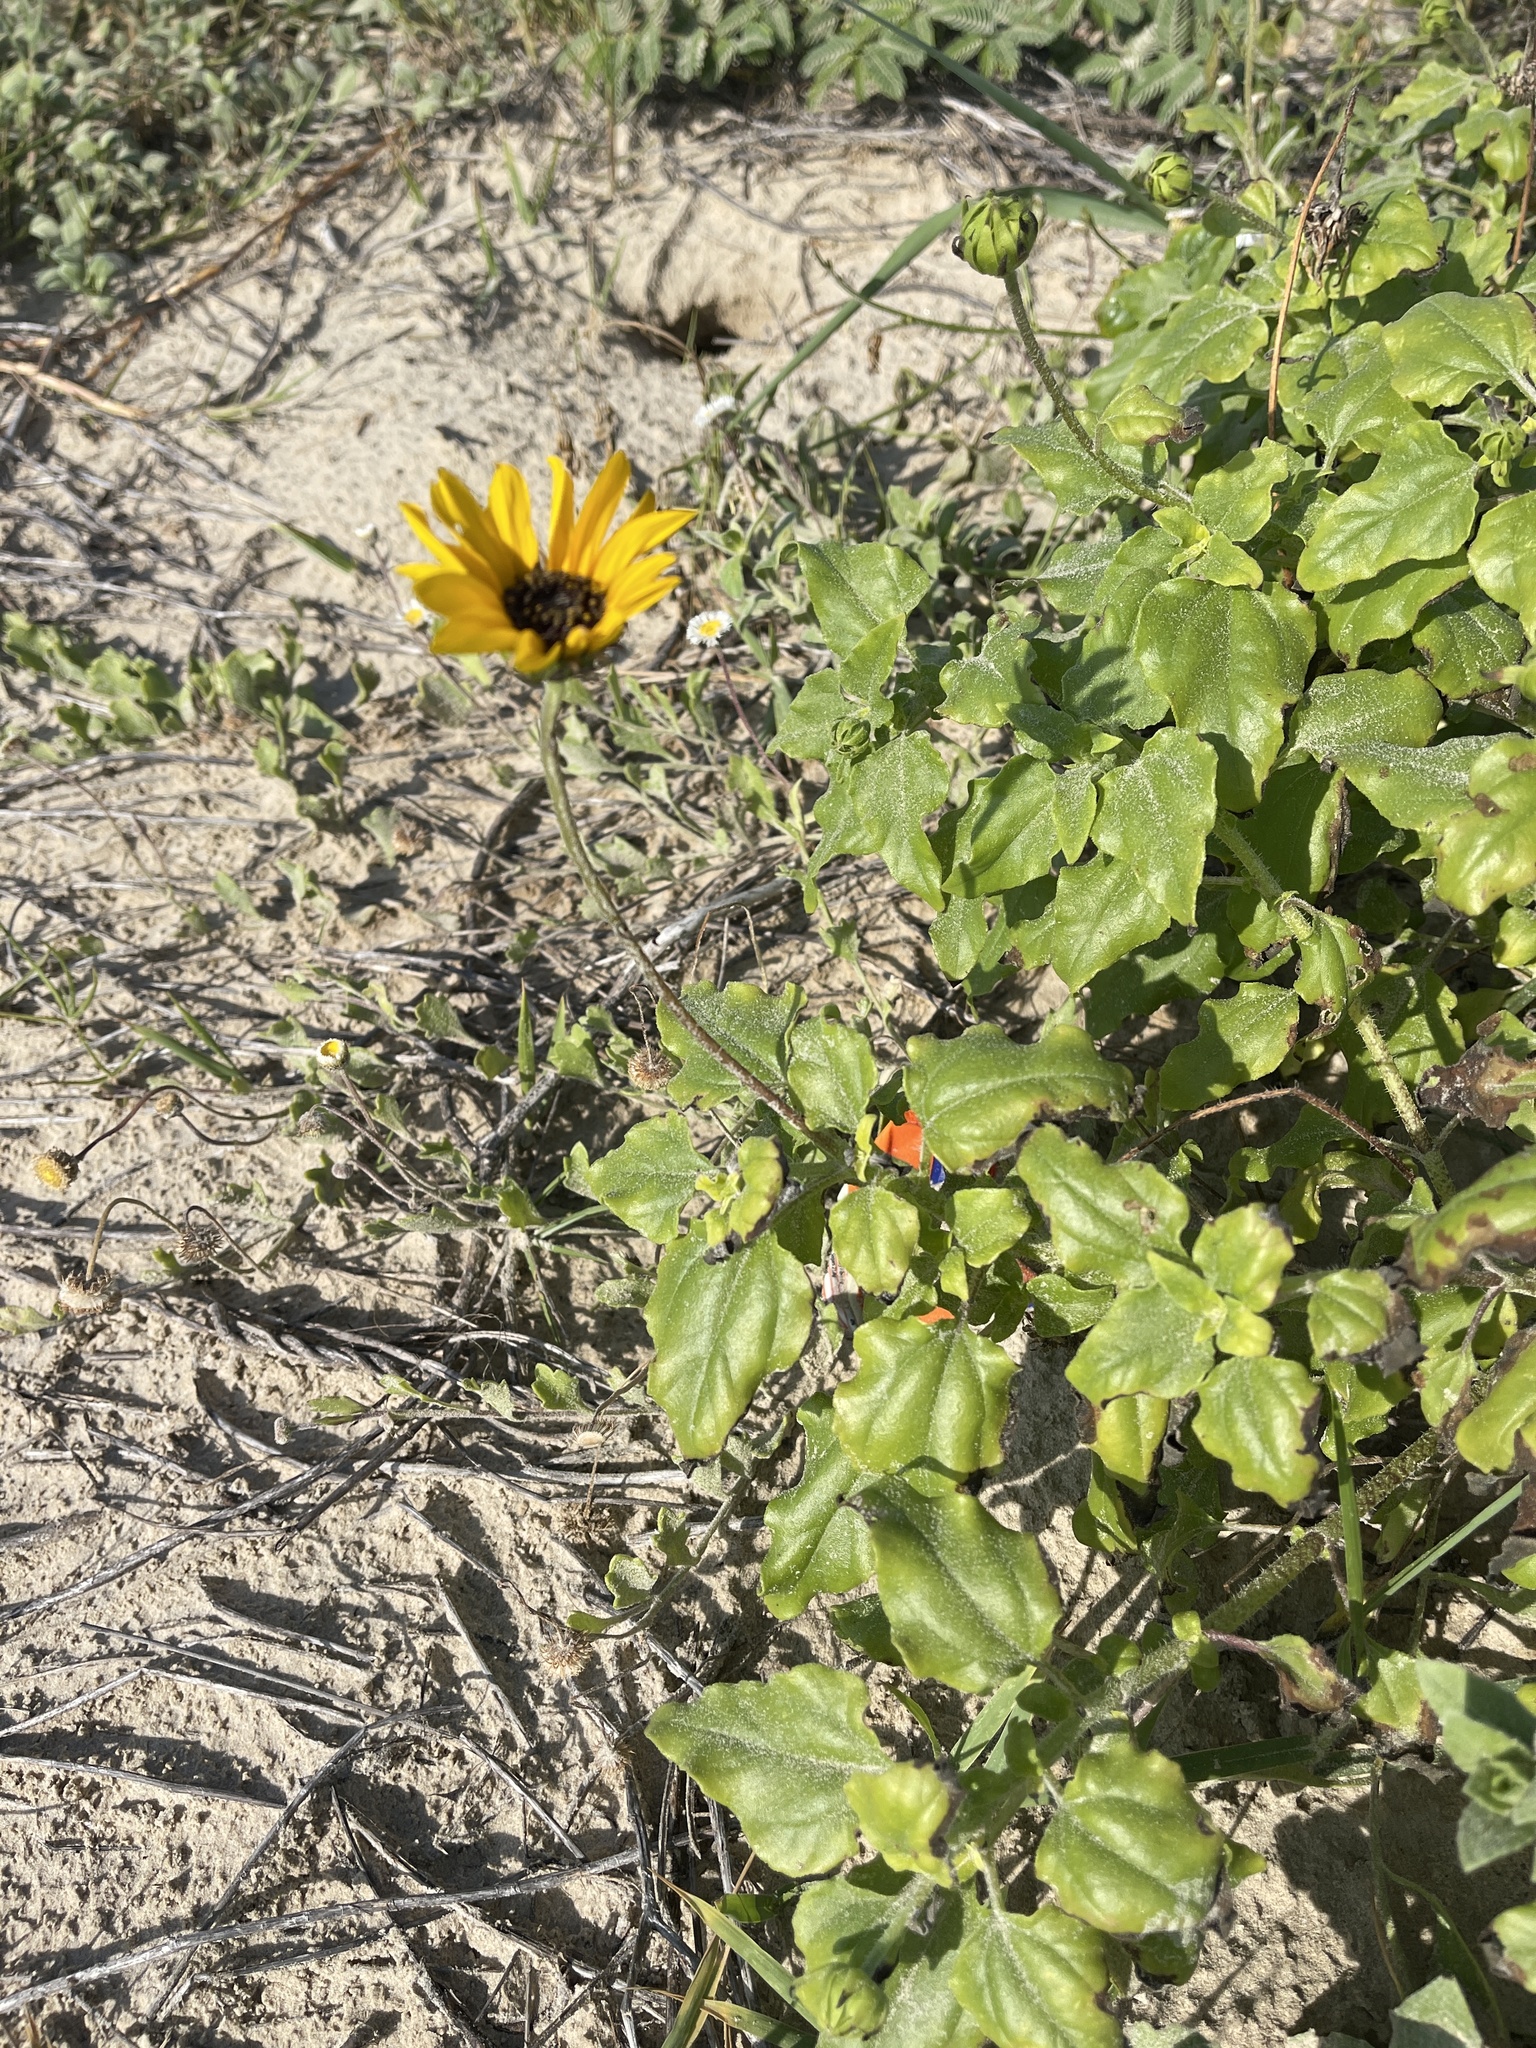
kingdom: Plantae
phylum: Tracheophyta
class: Magnoliopsida
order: Asterales
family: Asteraceae
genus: Helianthus
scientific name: Helianthus debilis
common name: Weak sunflower
